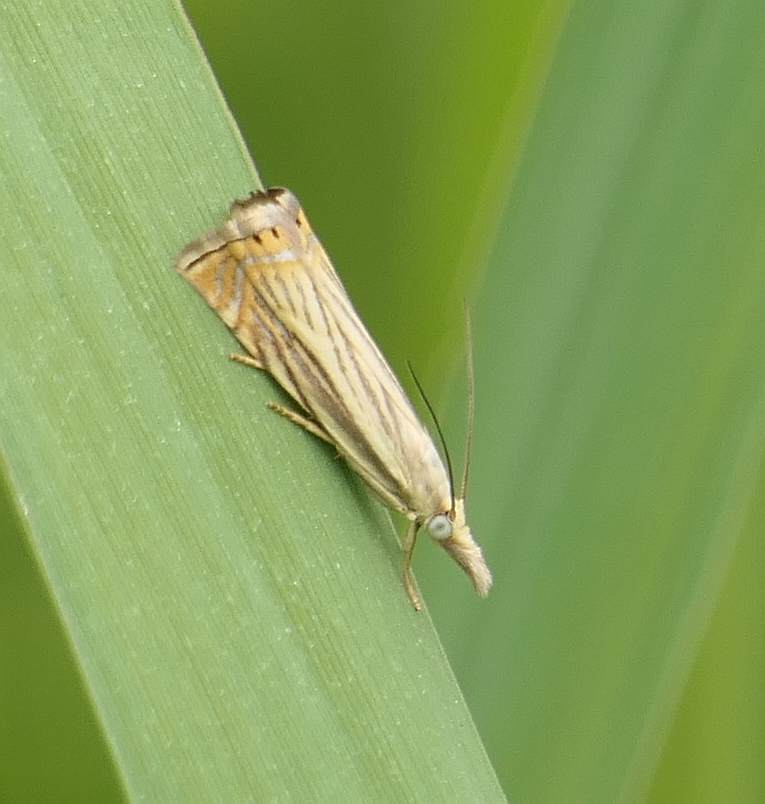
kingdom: Animalia
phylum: Arthropoda
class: Insecta
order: Lepidoptera
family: Crambidae
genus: Chrysoteuchia
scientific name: Chrysoteuchia topiarius
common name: Topiary grass-veneer
